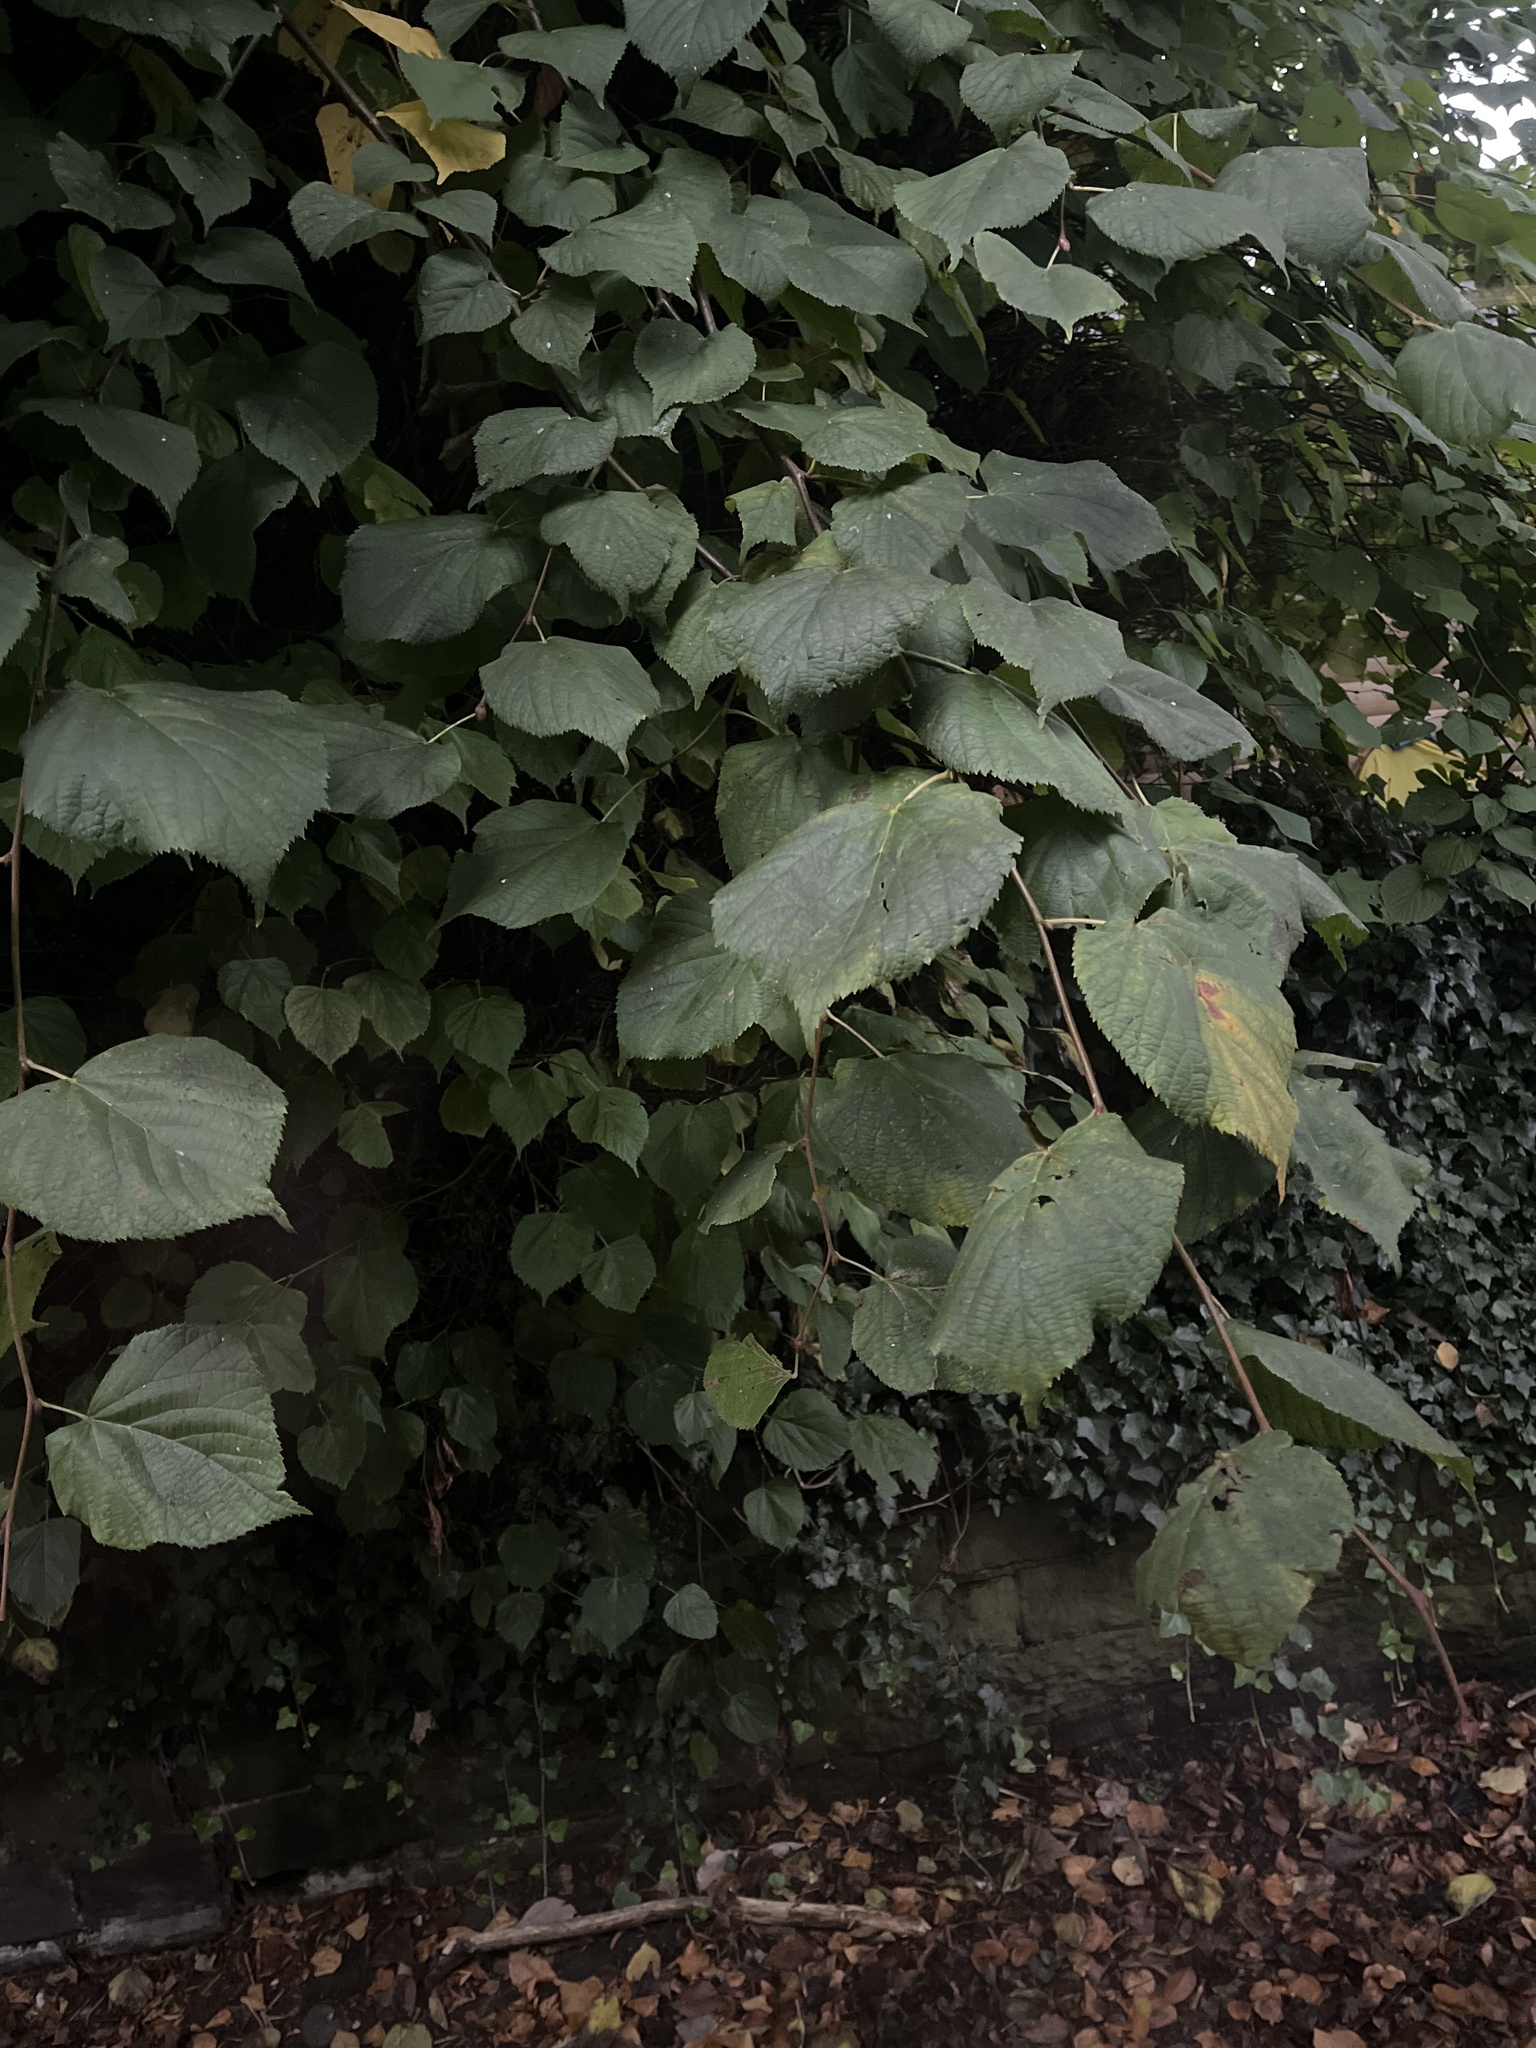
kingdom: Plantae
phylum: Tracheophyta
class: Magnoliopsida
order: Malvales
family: Malvaceae
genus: Tilia
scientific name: Tilia europaea
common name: European linden
